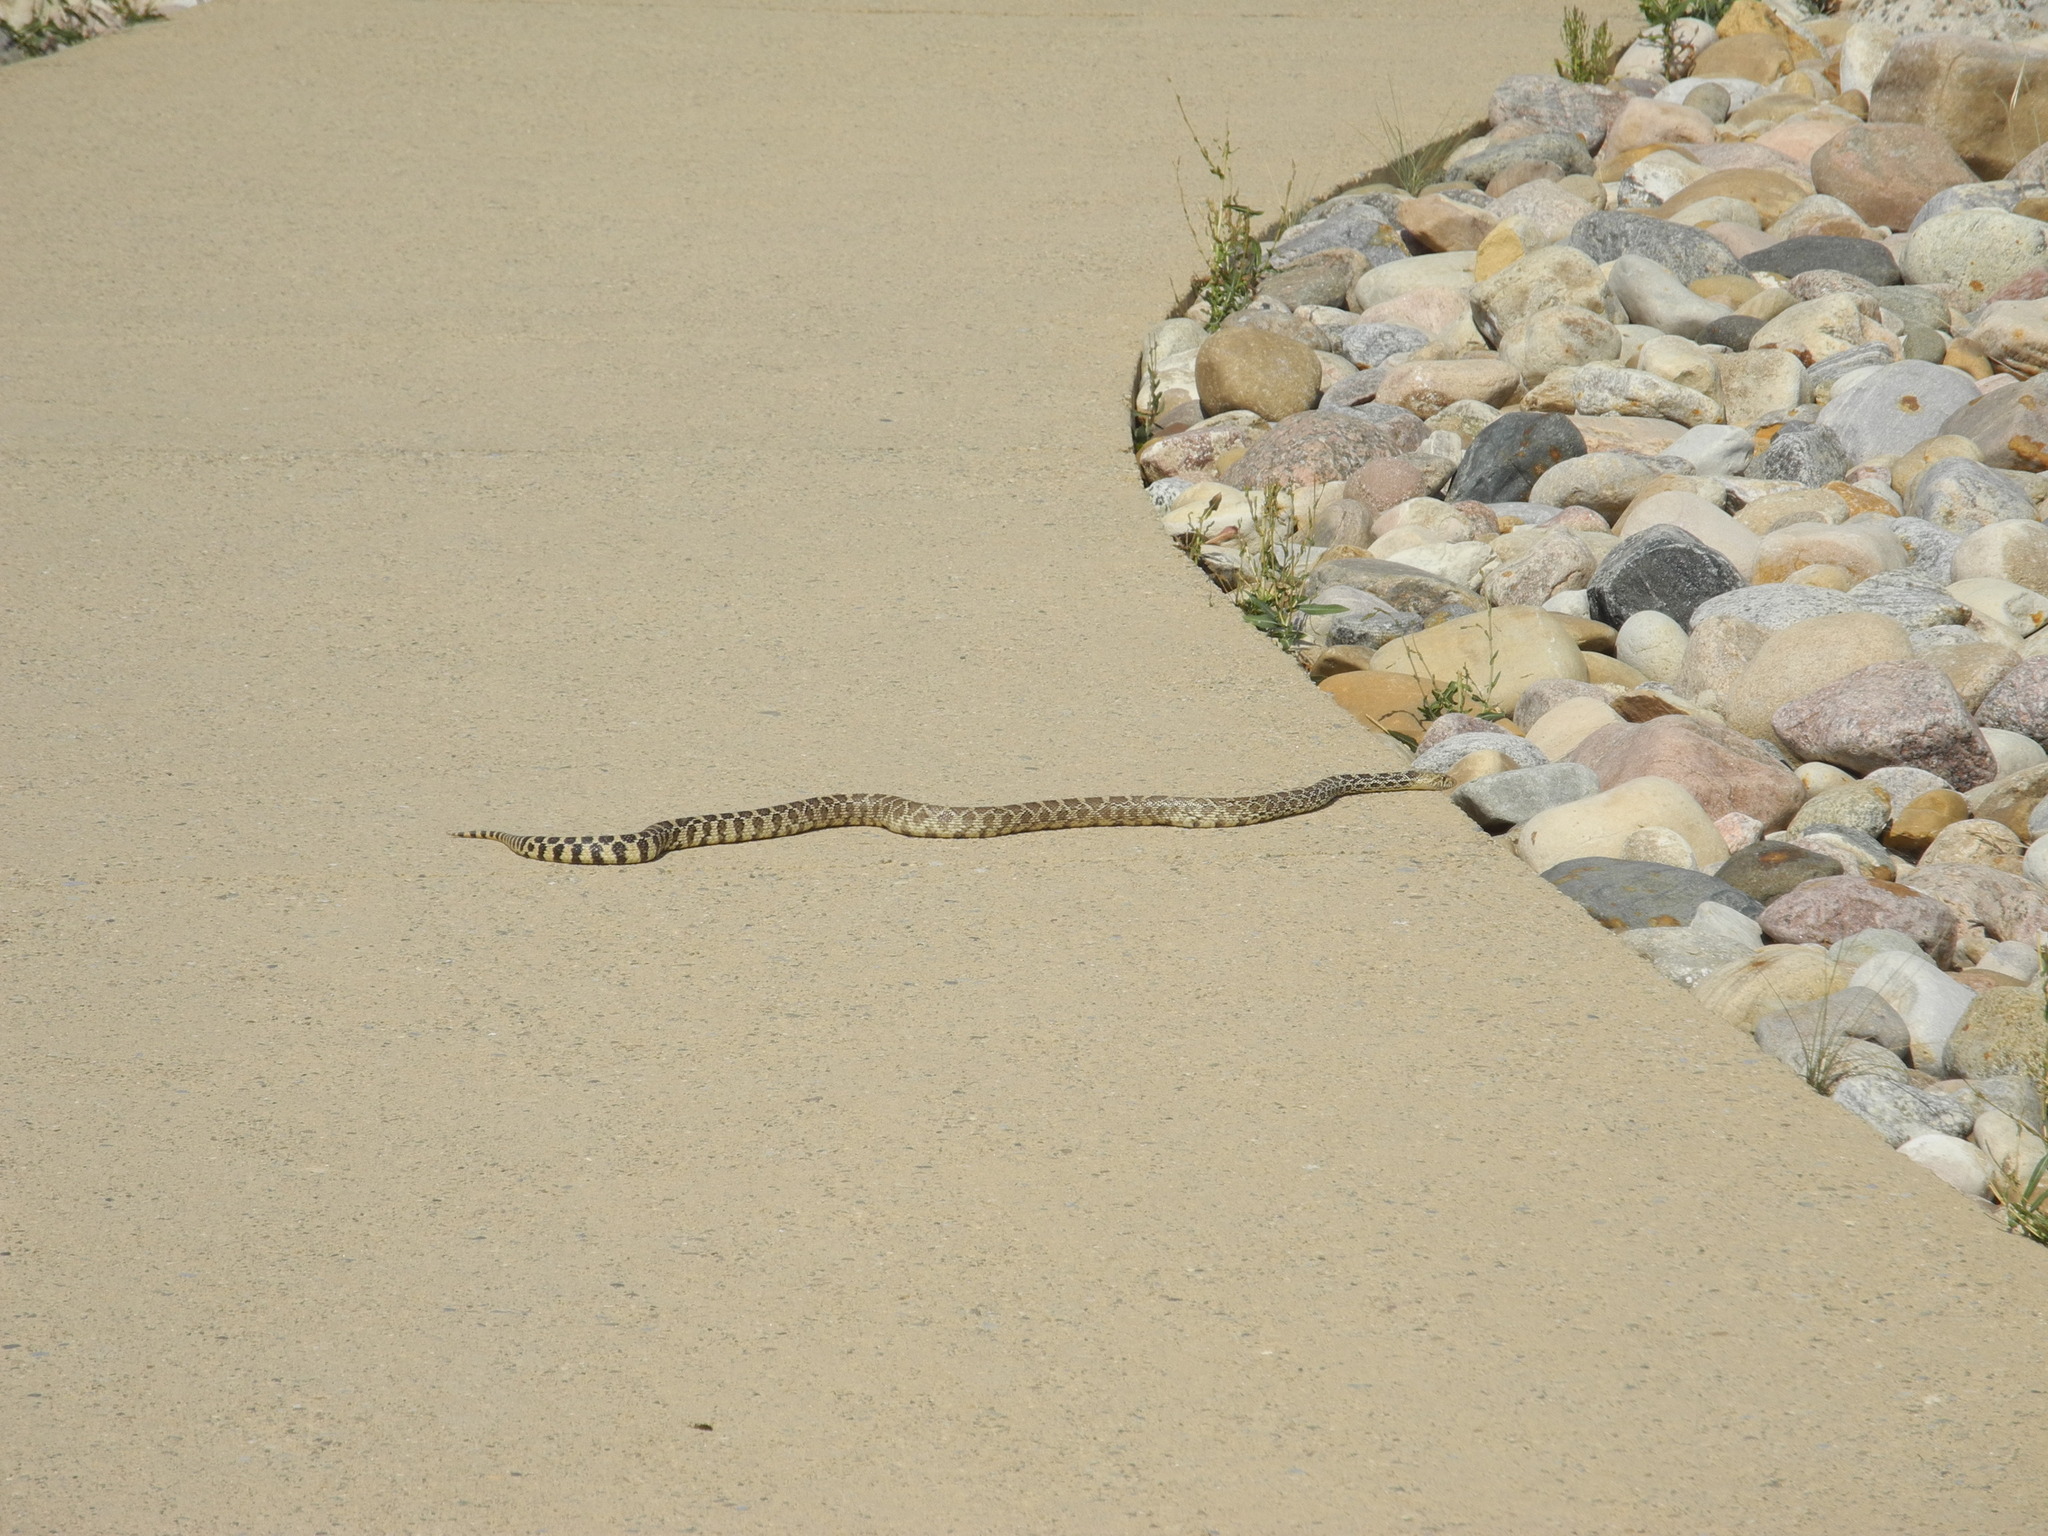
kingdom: Animalia
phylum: Chordata
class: Squamata
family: Colubridae
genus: Pituophis
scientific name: Pituophis catenifer
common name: Gopher snake
